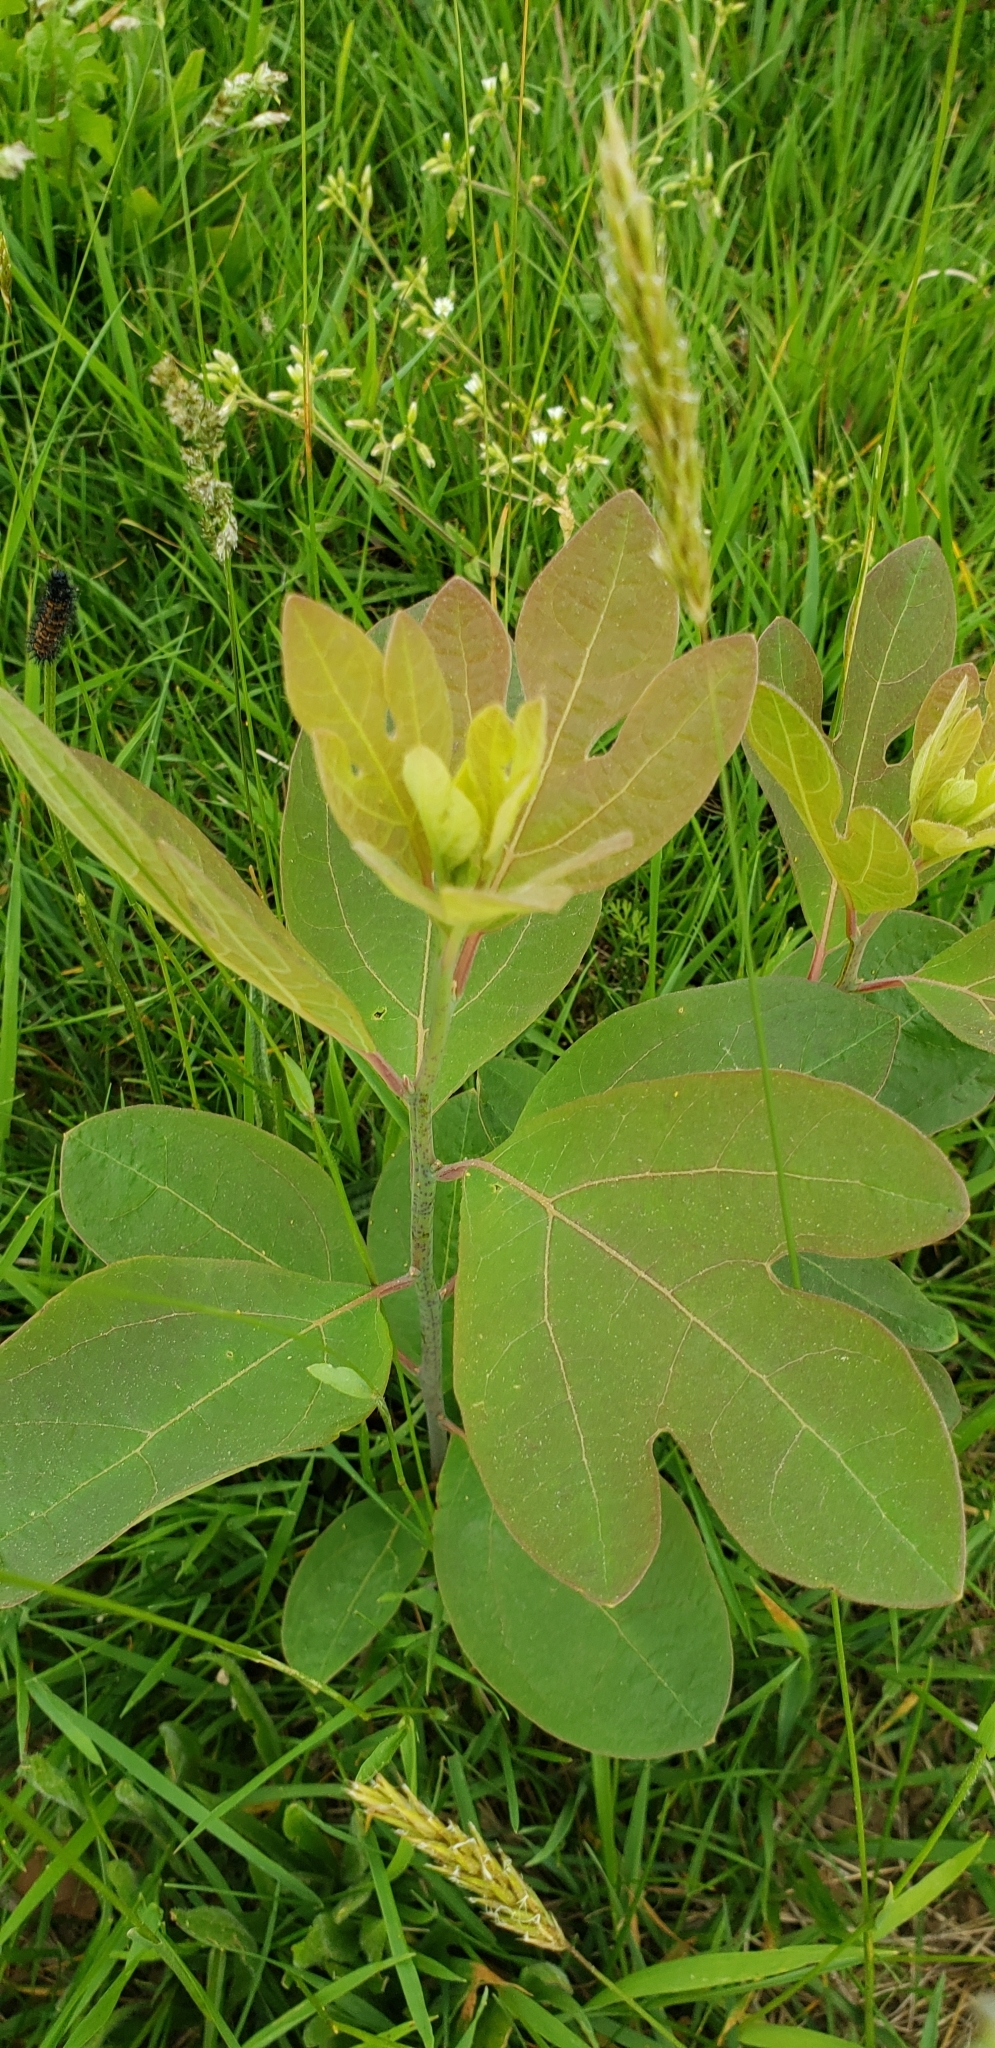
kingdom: Plantae
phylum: Tracheophyta
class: Magnoliopsida
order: Laurales
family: Lauraceae
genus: Sassafras
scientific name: Sassafras albidum
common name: Sassafras
